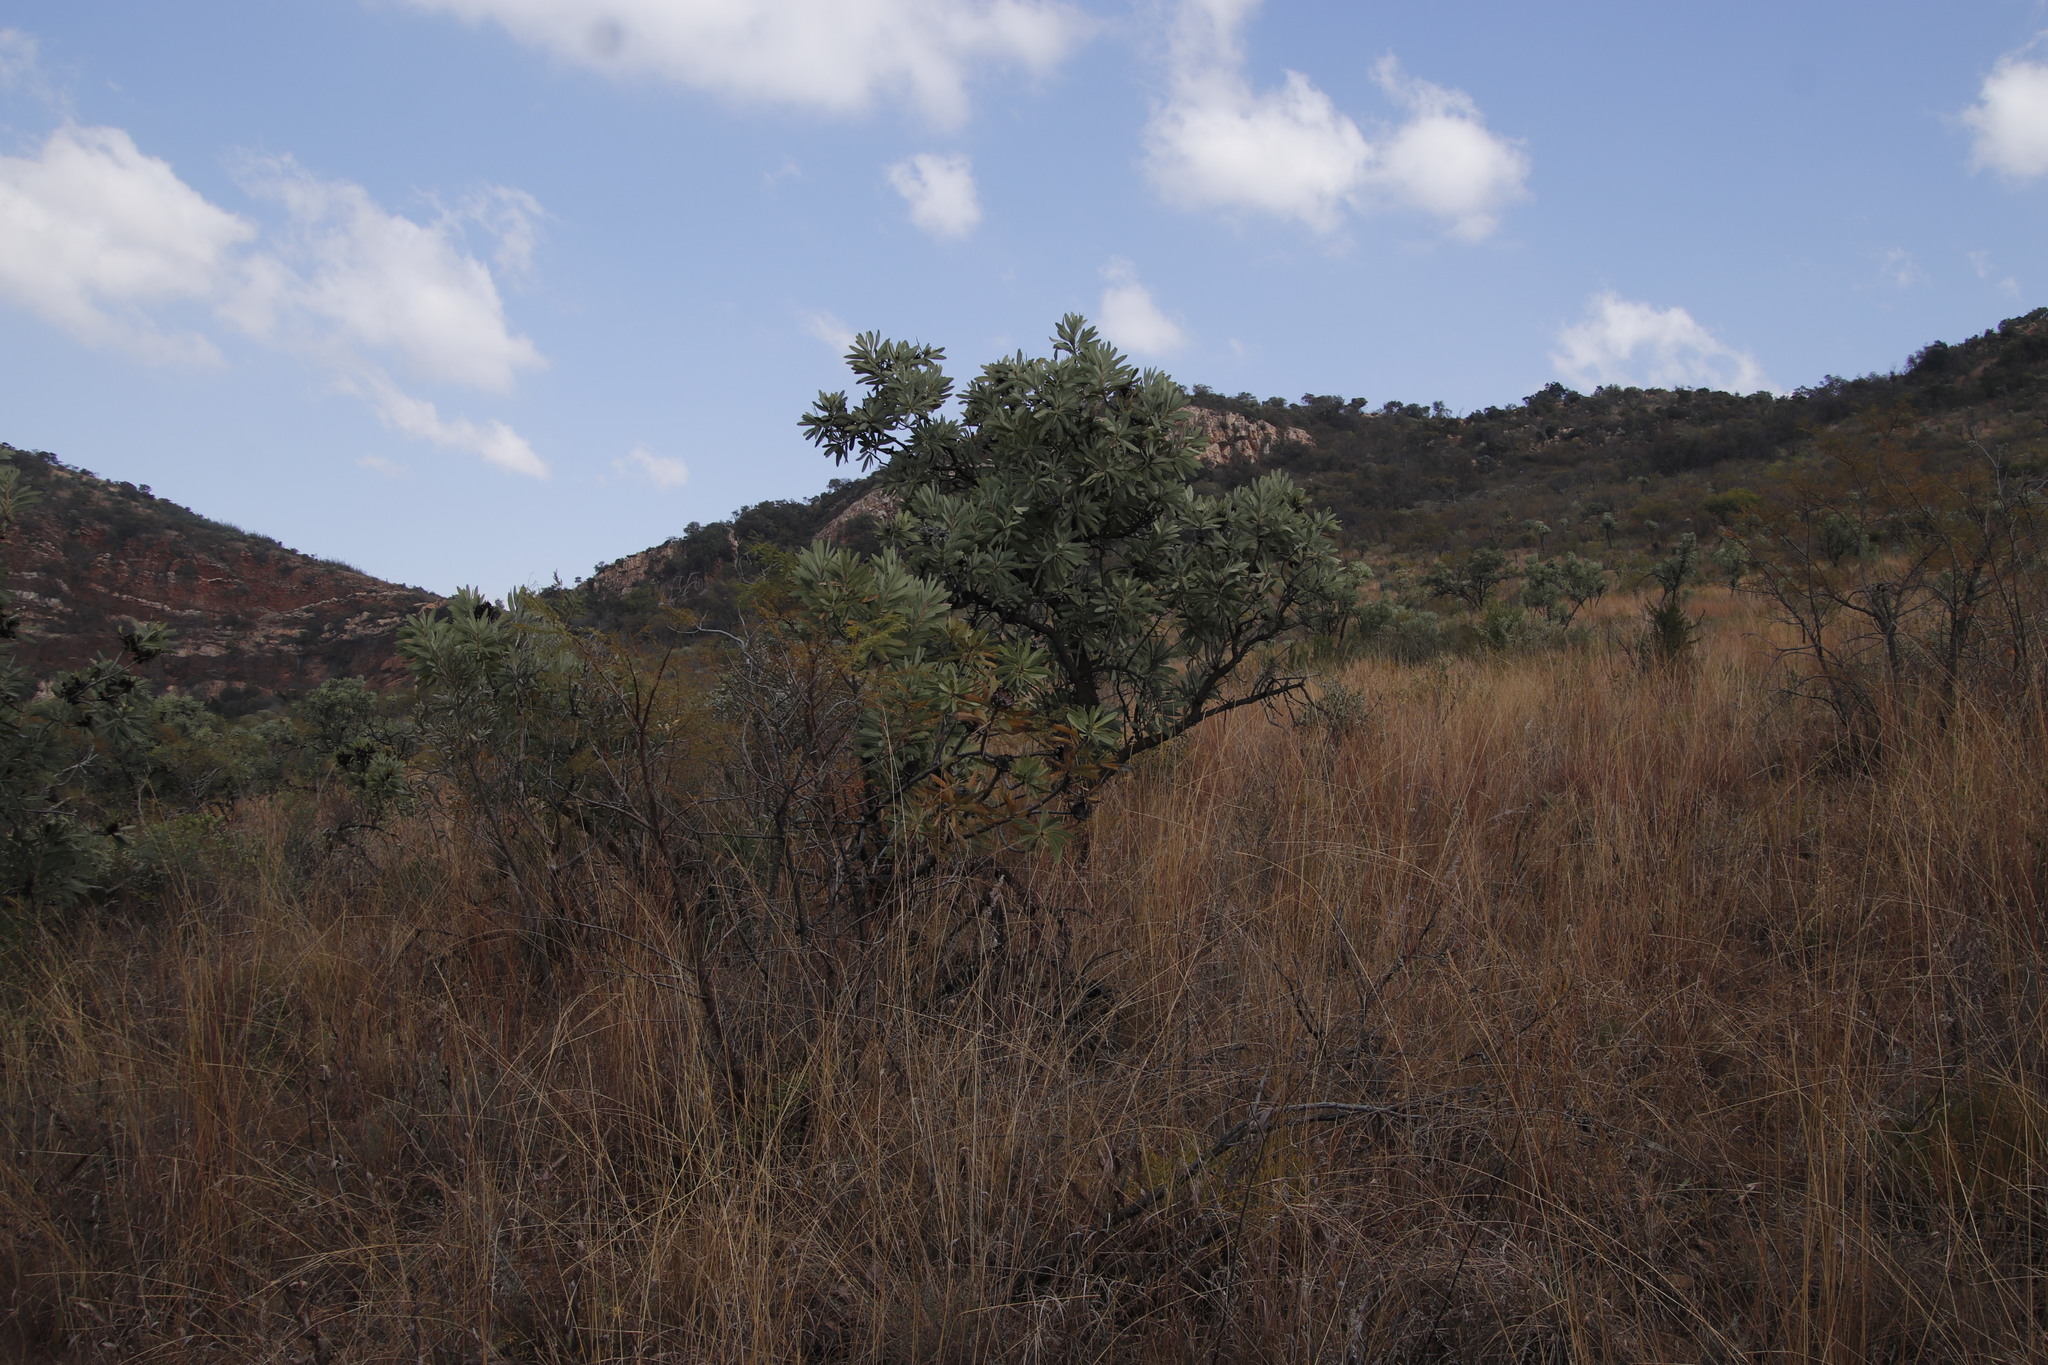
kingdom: Plantae
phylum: Tracheophyta
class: Magnoliopsida
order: Proteales
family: Proteaceae
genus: Protea
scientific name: Protea caffra
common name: Common sugarbush
